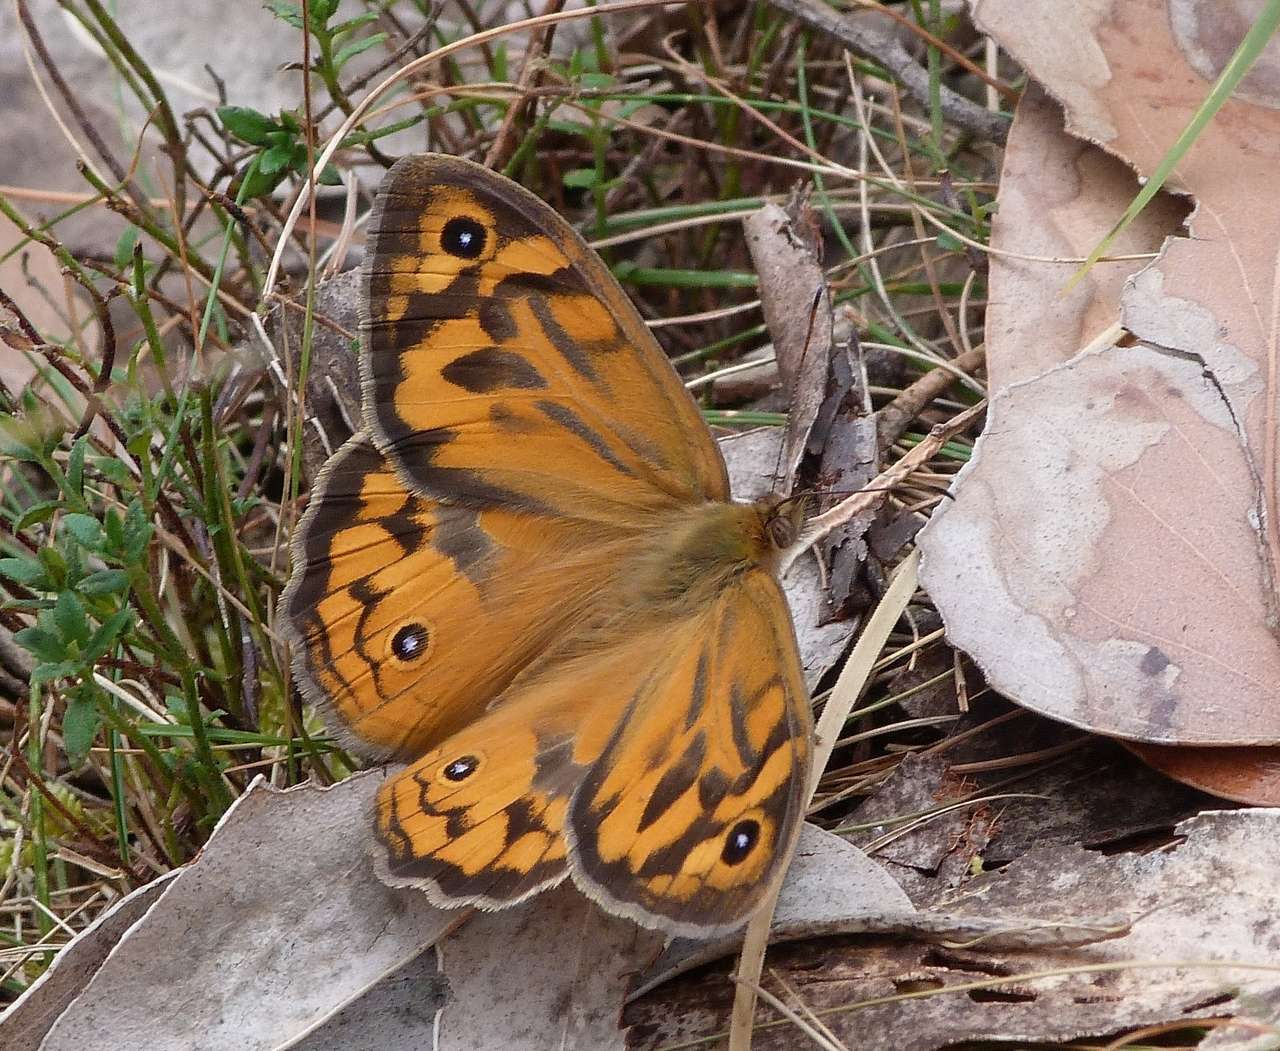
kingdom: Animalia
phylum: Arthropoda
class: Insecta
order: Lepidoptera
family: Nymphalidae
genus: Heteronympha
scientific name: Heteronympha merope
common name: Common brown
